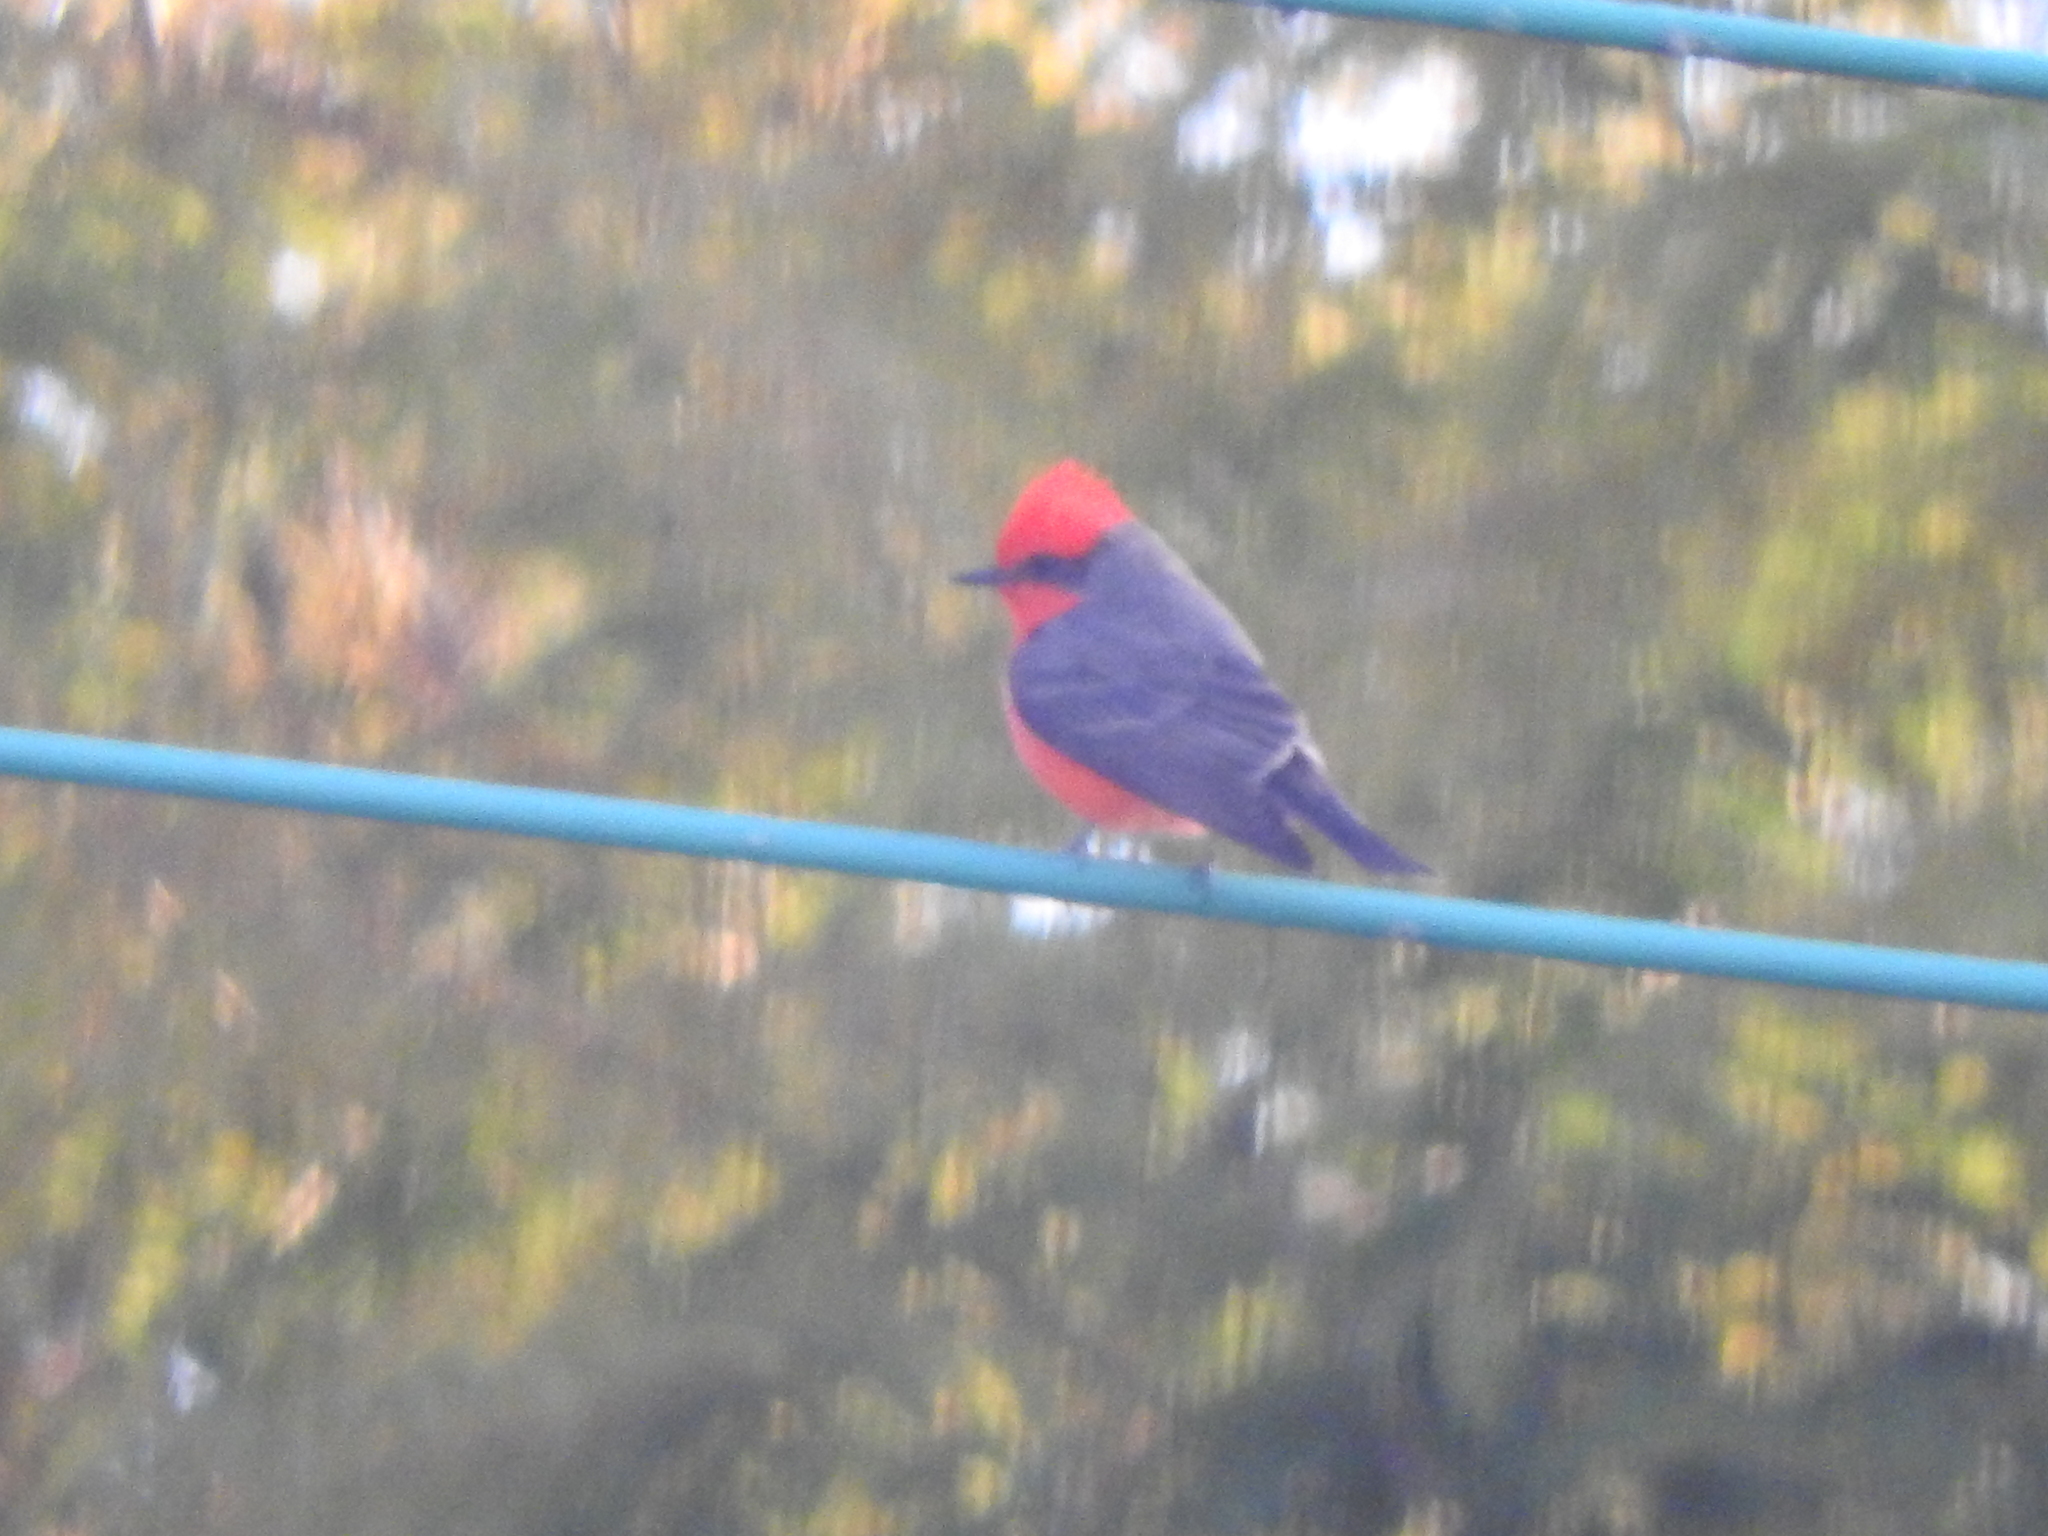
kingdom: Animalia
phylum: Chordata
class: Aves
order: Passeriformes
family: Tyrannidae
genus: Pyrocephalus
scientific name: Pyrocephalus rubinus
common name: Vermilion flycatcher
